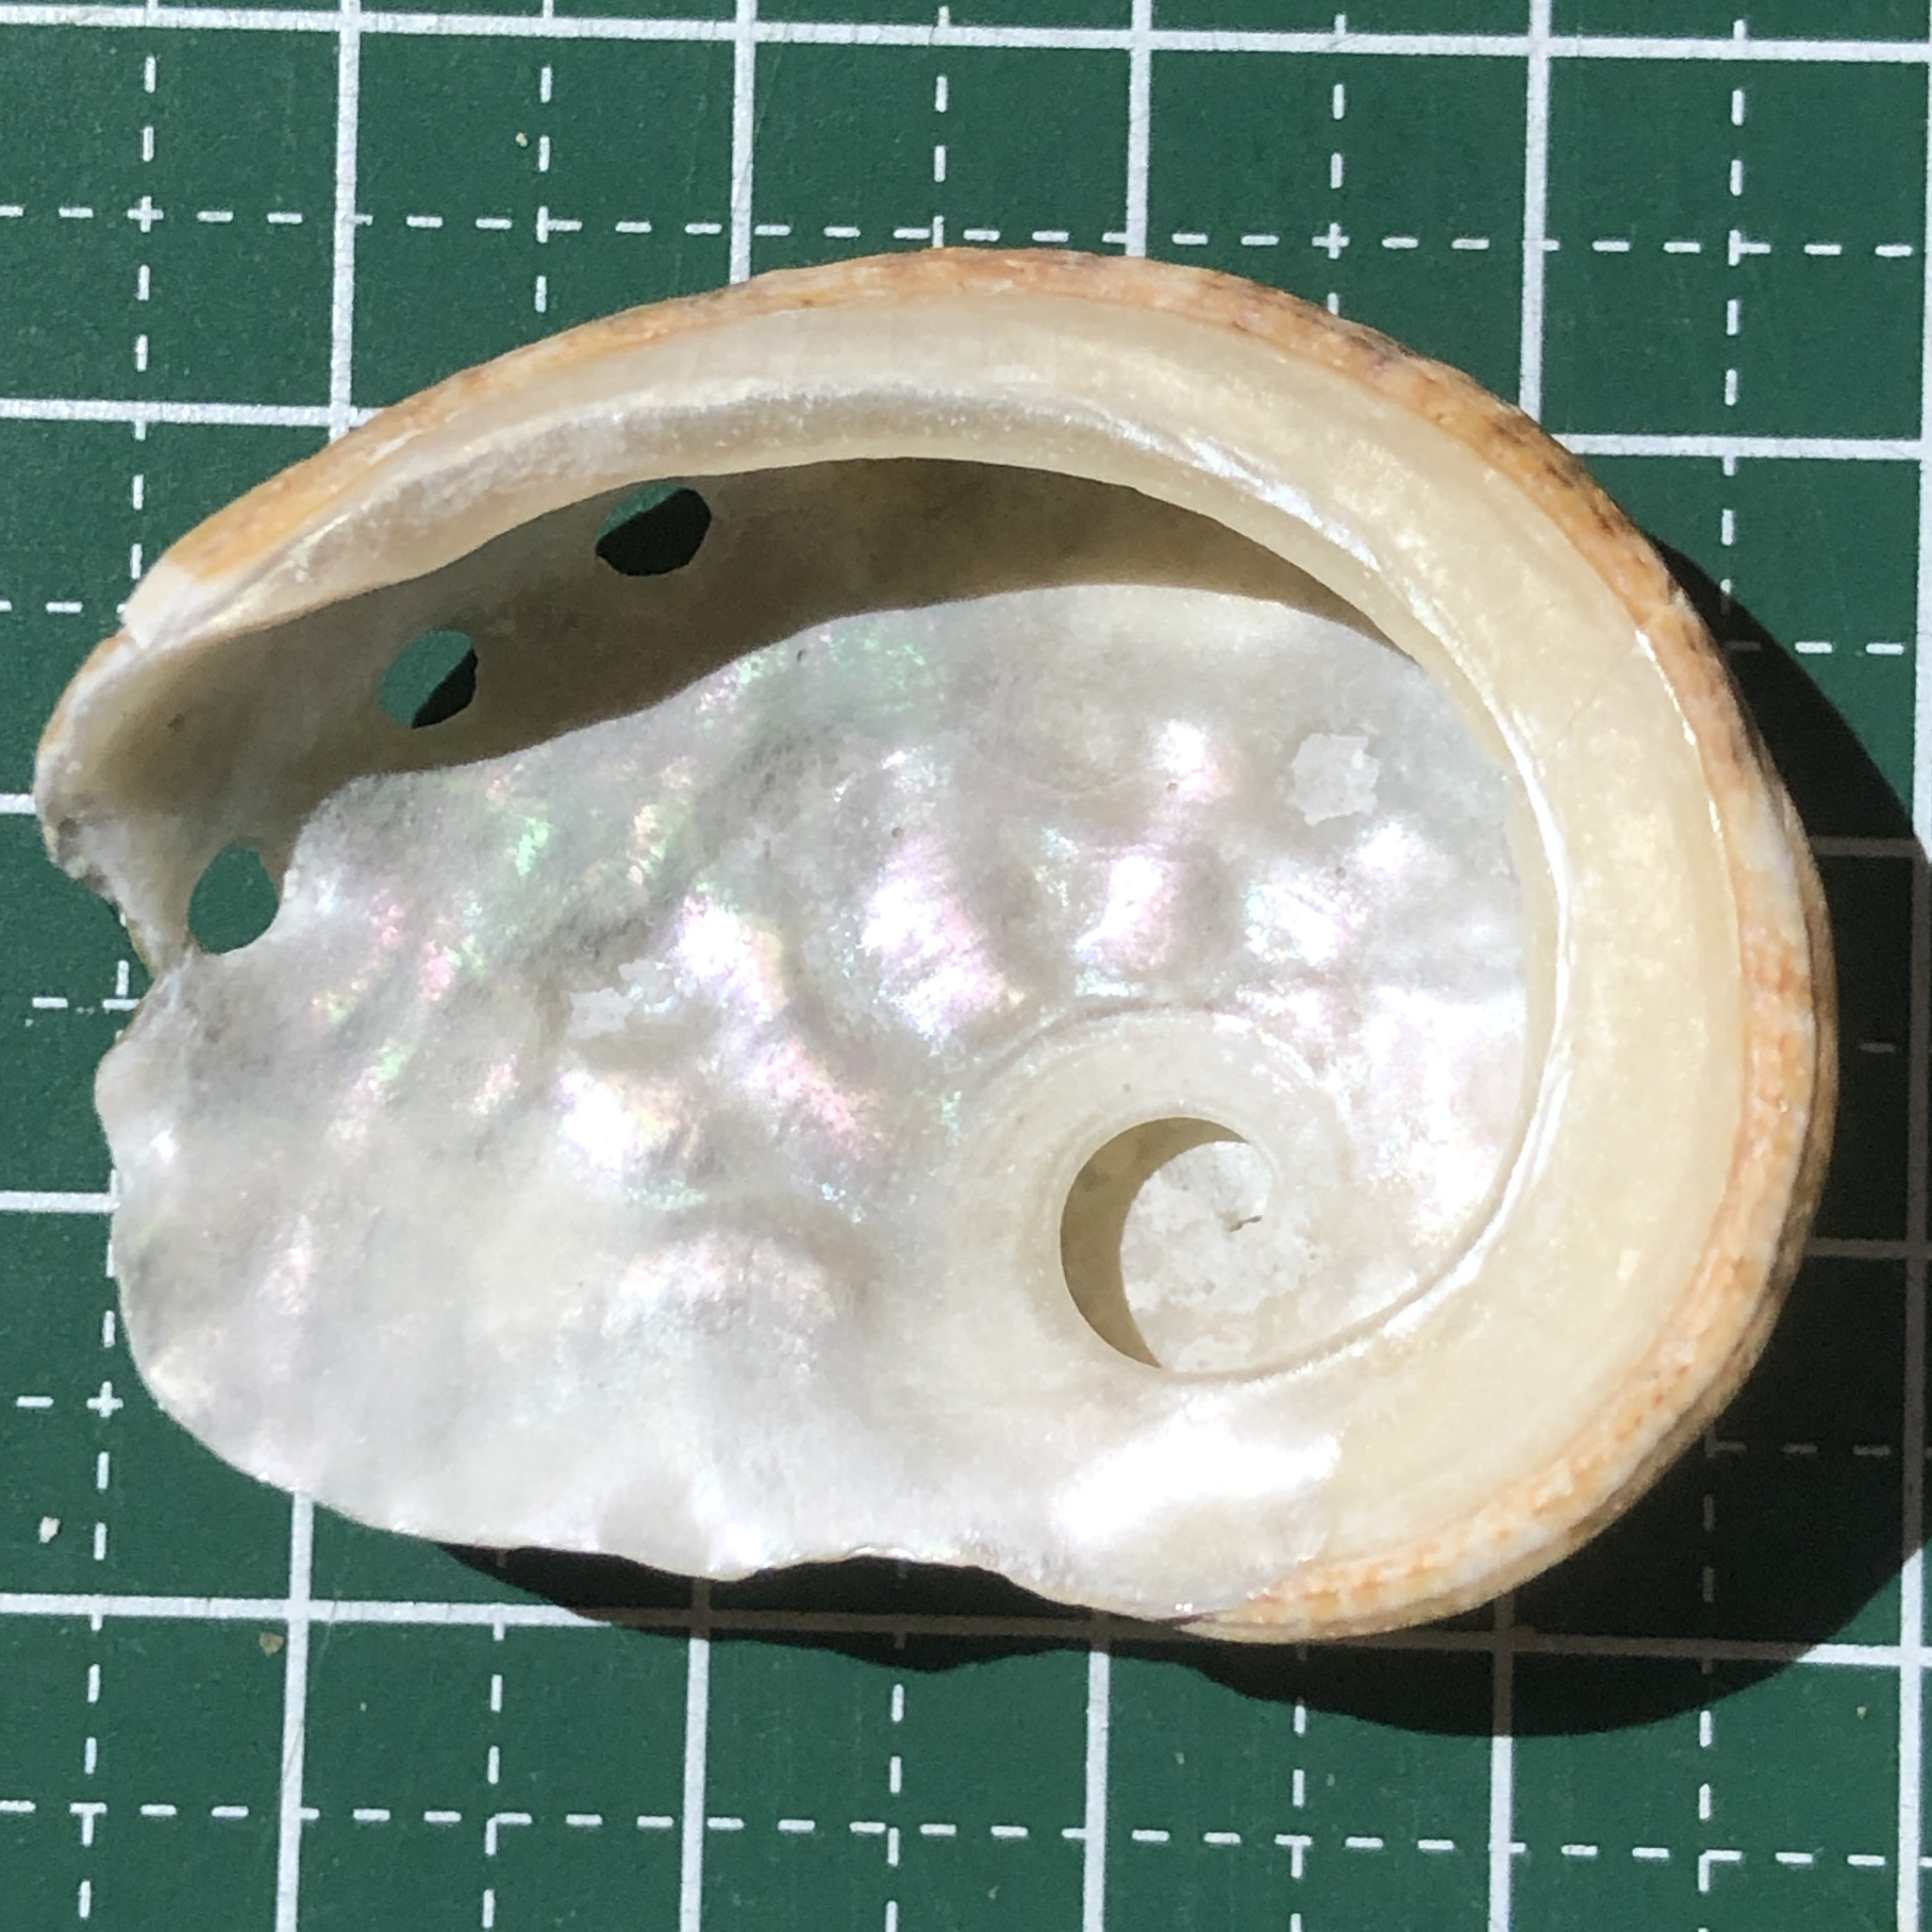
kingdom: Animalia
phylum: Mollusca
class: Gastropoda
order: Lepetellida
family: Haliotidae
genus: Haliotis
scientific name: Haliotis ovina
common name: Sheep's ear abalone
